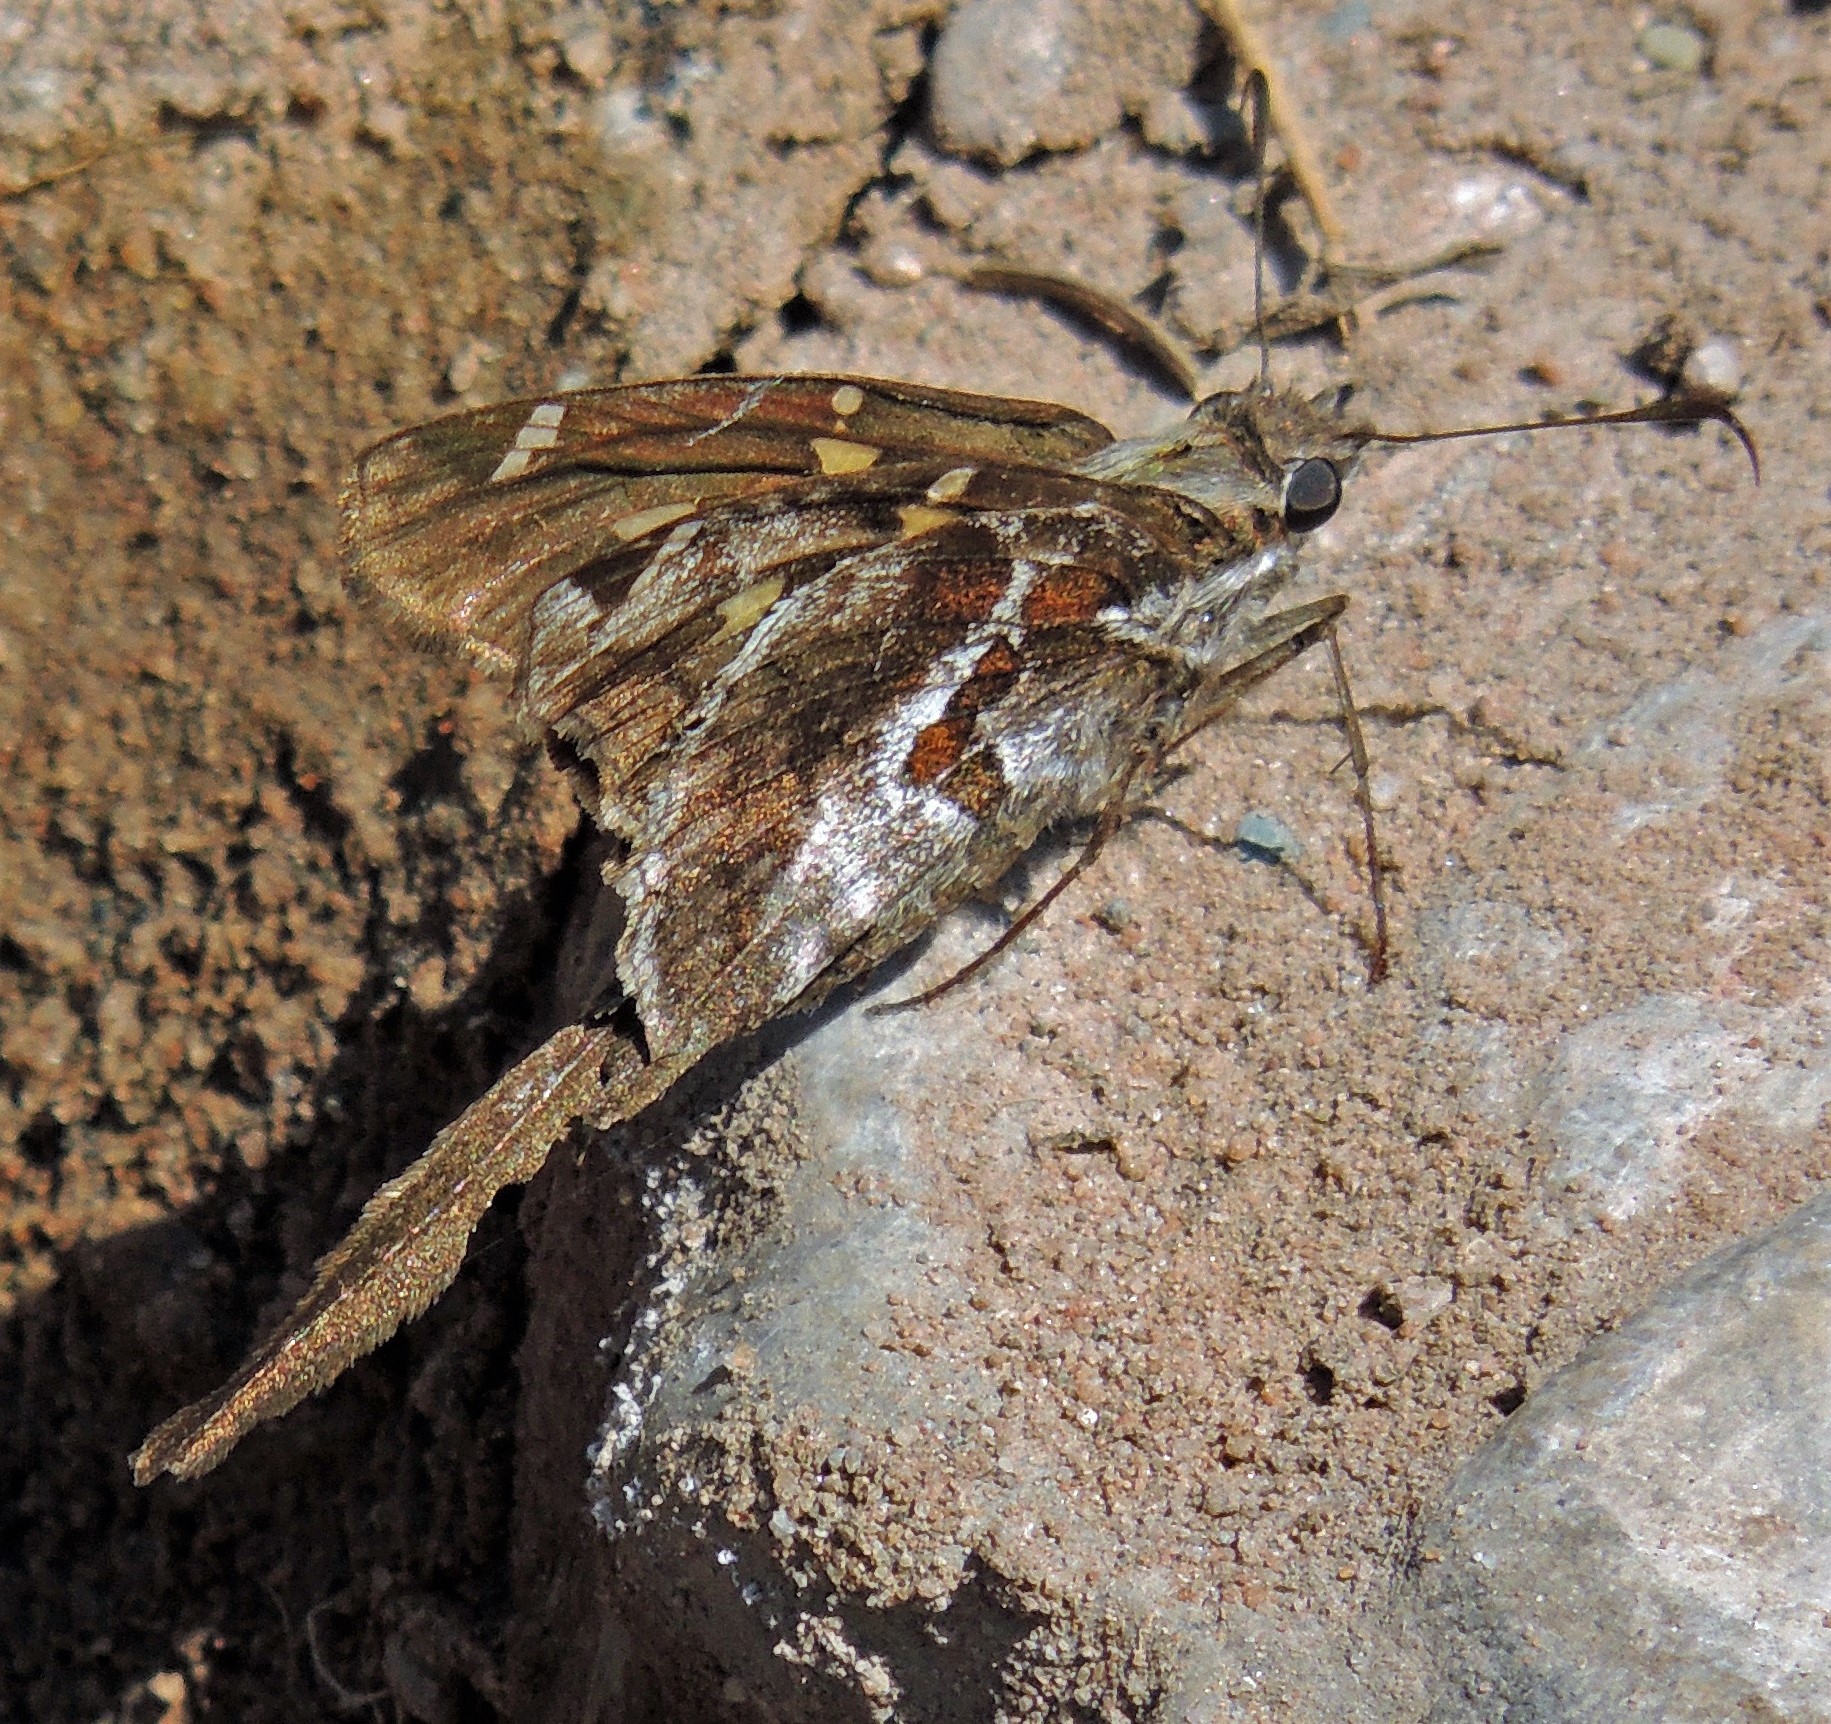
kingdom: Animalia
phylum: Arthropoda
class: Insecta
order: Lepidoptera
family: Hesperiidae
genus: Chioides
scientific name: Chioides catillus
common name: Silverbanded skipper
